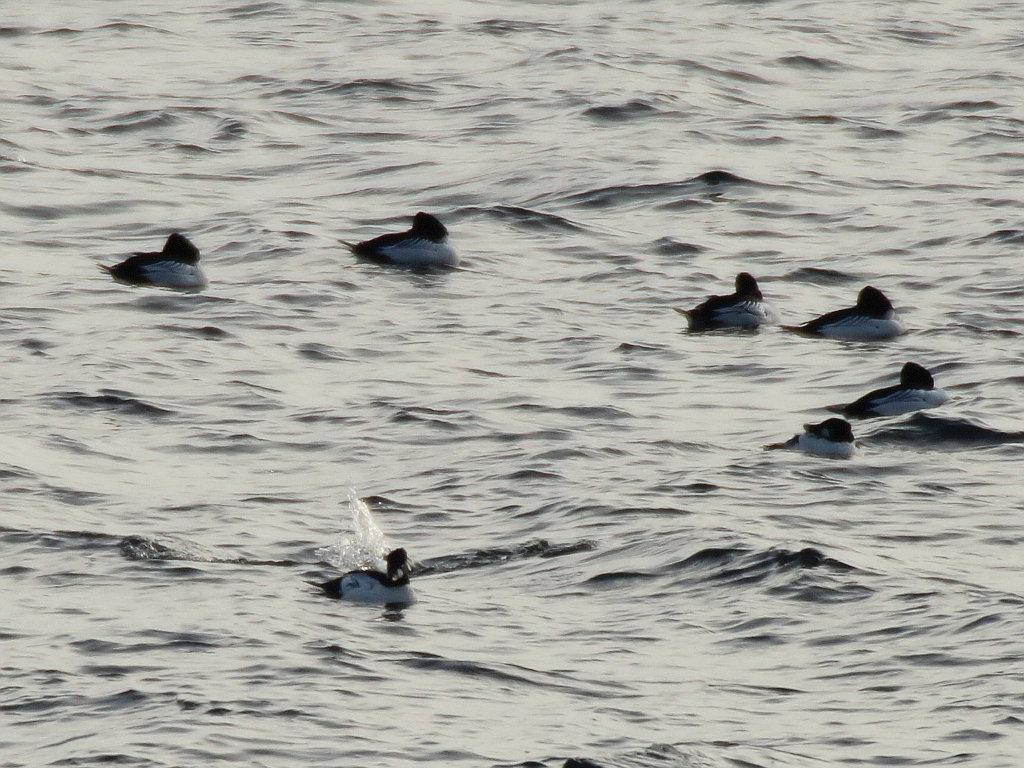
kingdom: Animalia
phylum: Chordata
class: Aves
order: Anseriformes
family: Anatidae
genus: Bucephala
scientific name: Bucephala clangula
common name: Common goldeneye
